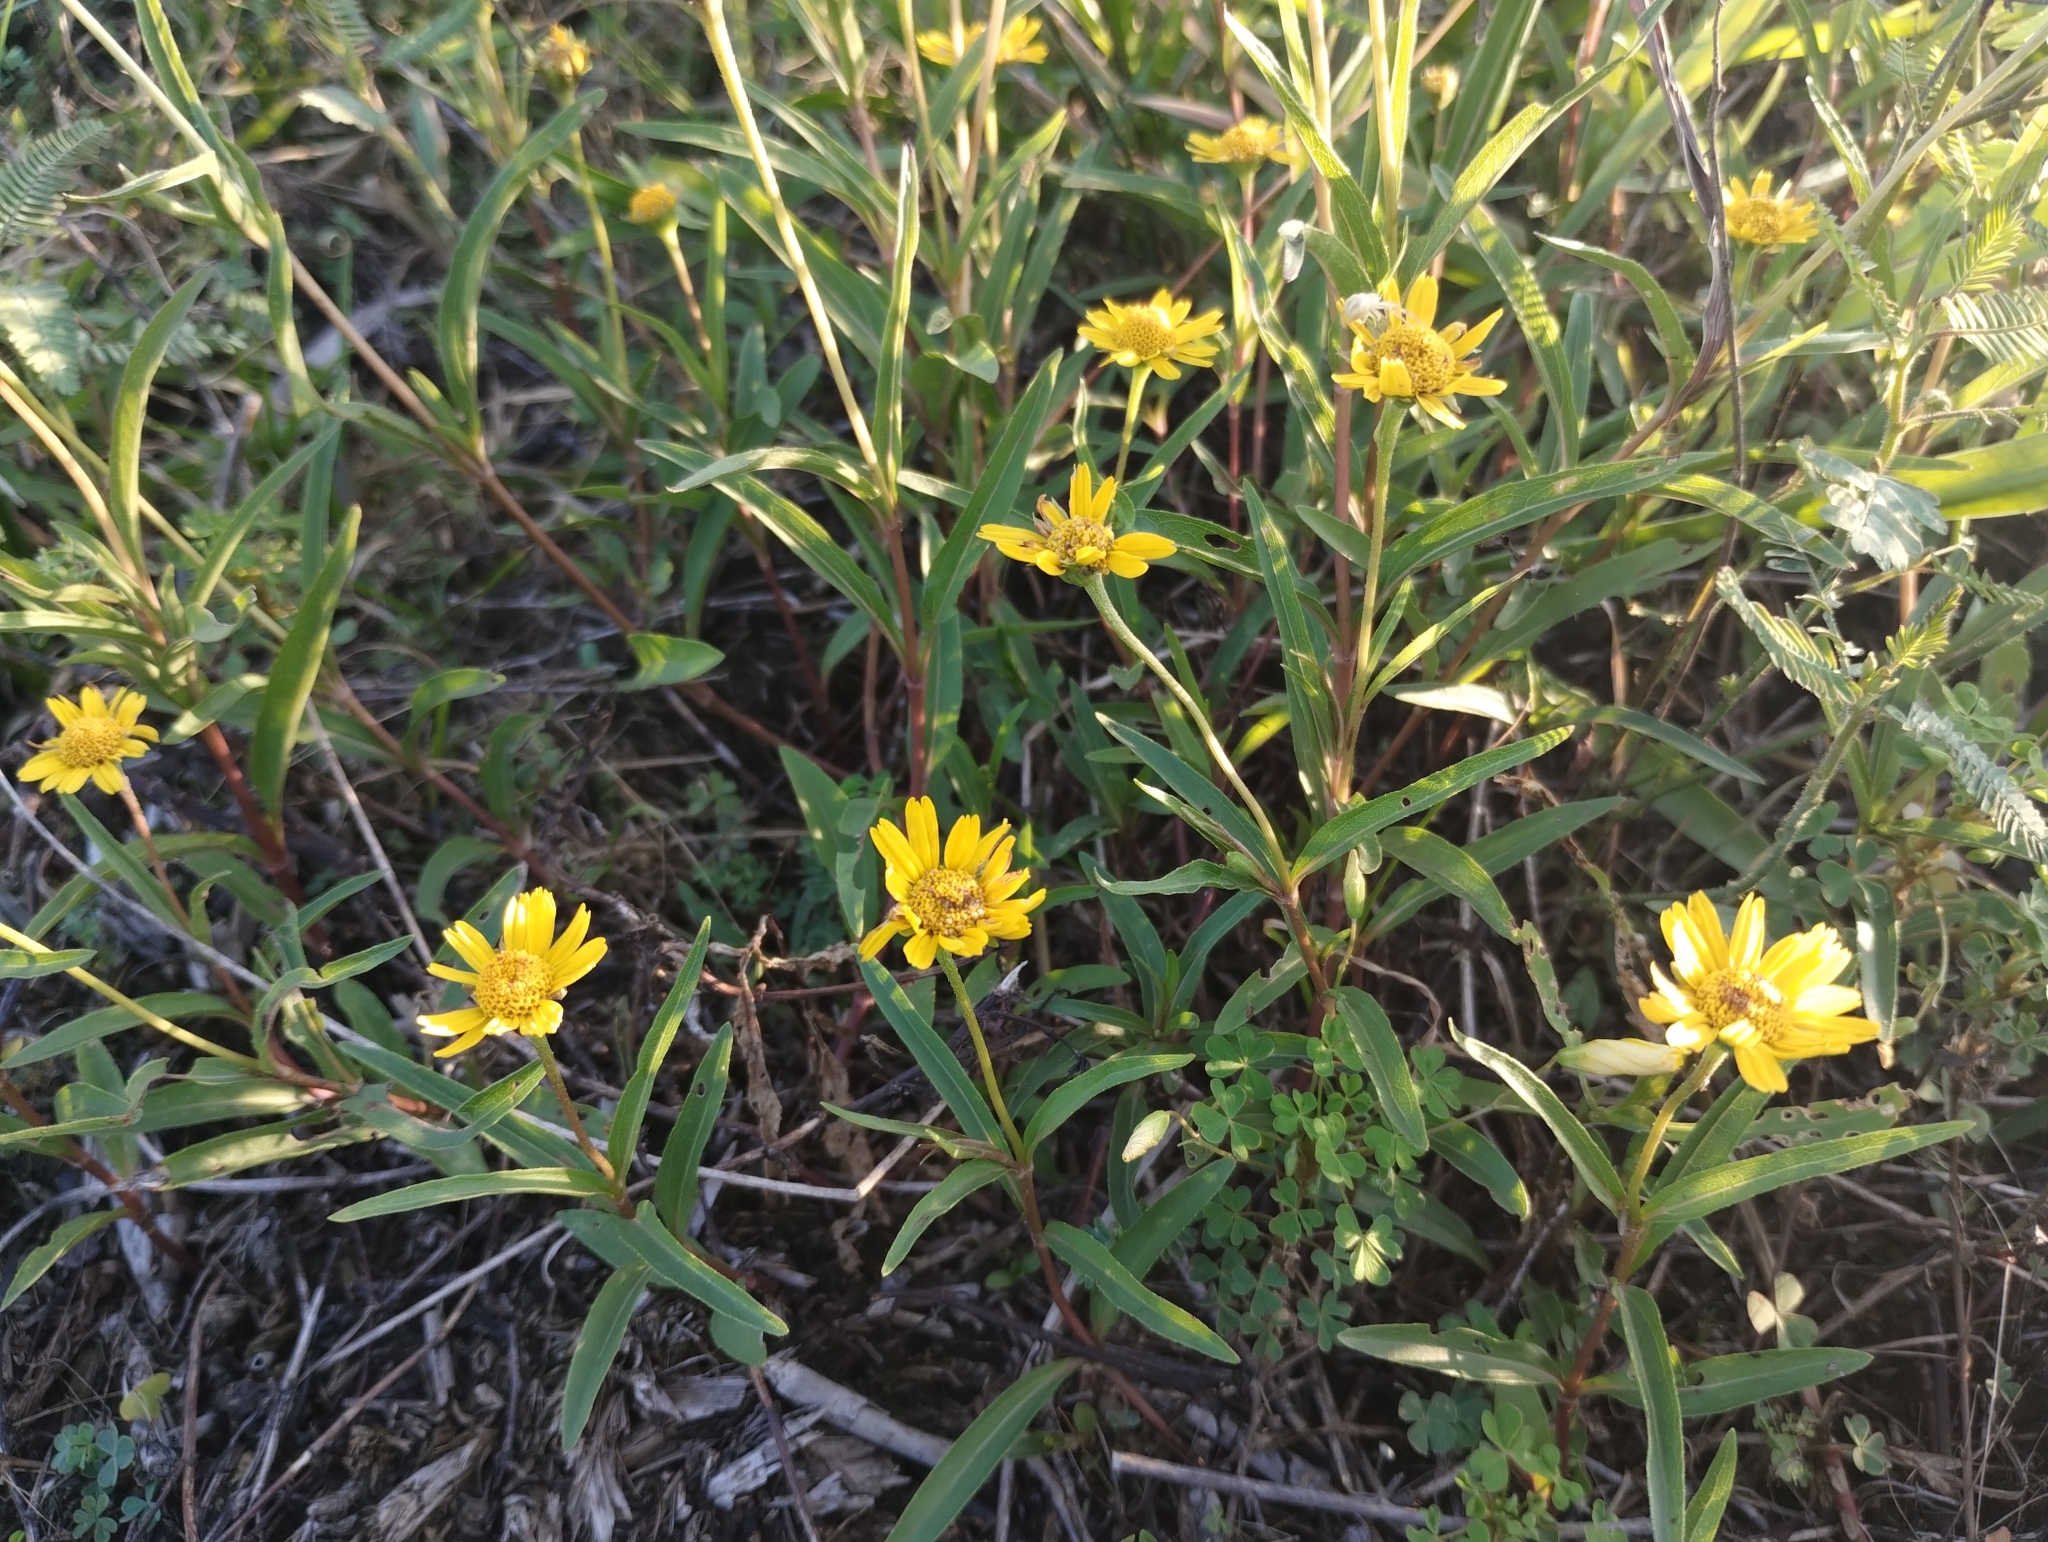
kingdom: Plantae
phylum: Tracheophyta
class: Magnoliopsida
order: Asterales
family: Asteraceae
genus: Acmella
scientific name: Acmella decumbens
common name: Creeping spotflower
